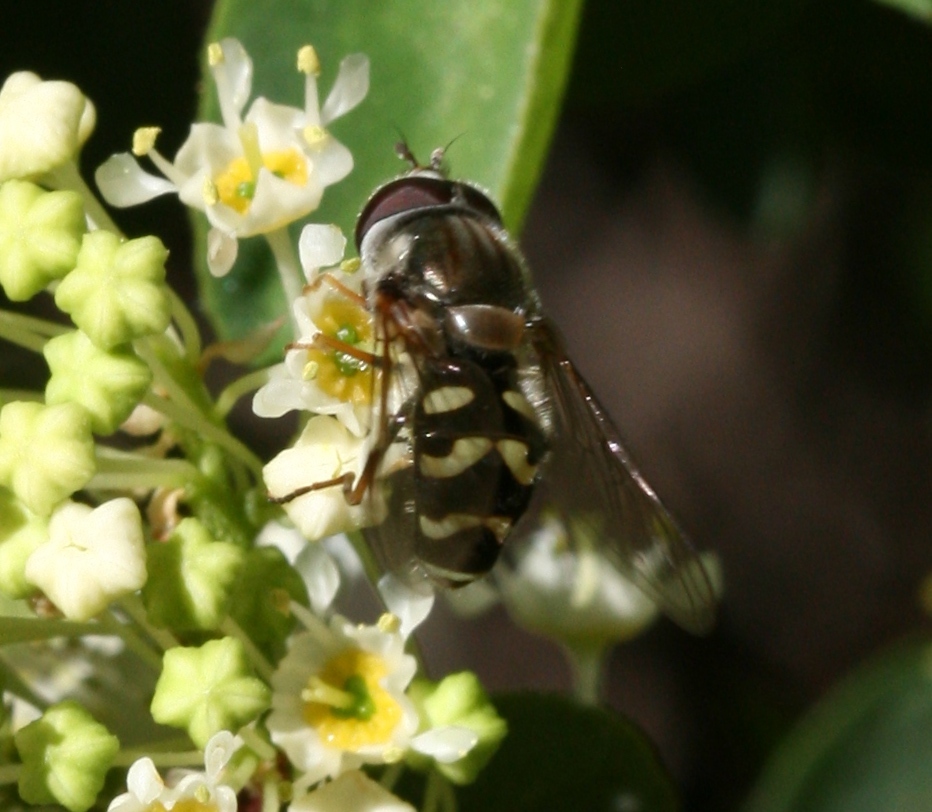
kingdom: Animalia
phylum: Arthropoda
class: Insecta
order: Diptera
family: Syrphidae
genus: Dasysyrphus
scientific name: Dasysyrphus creper
